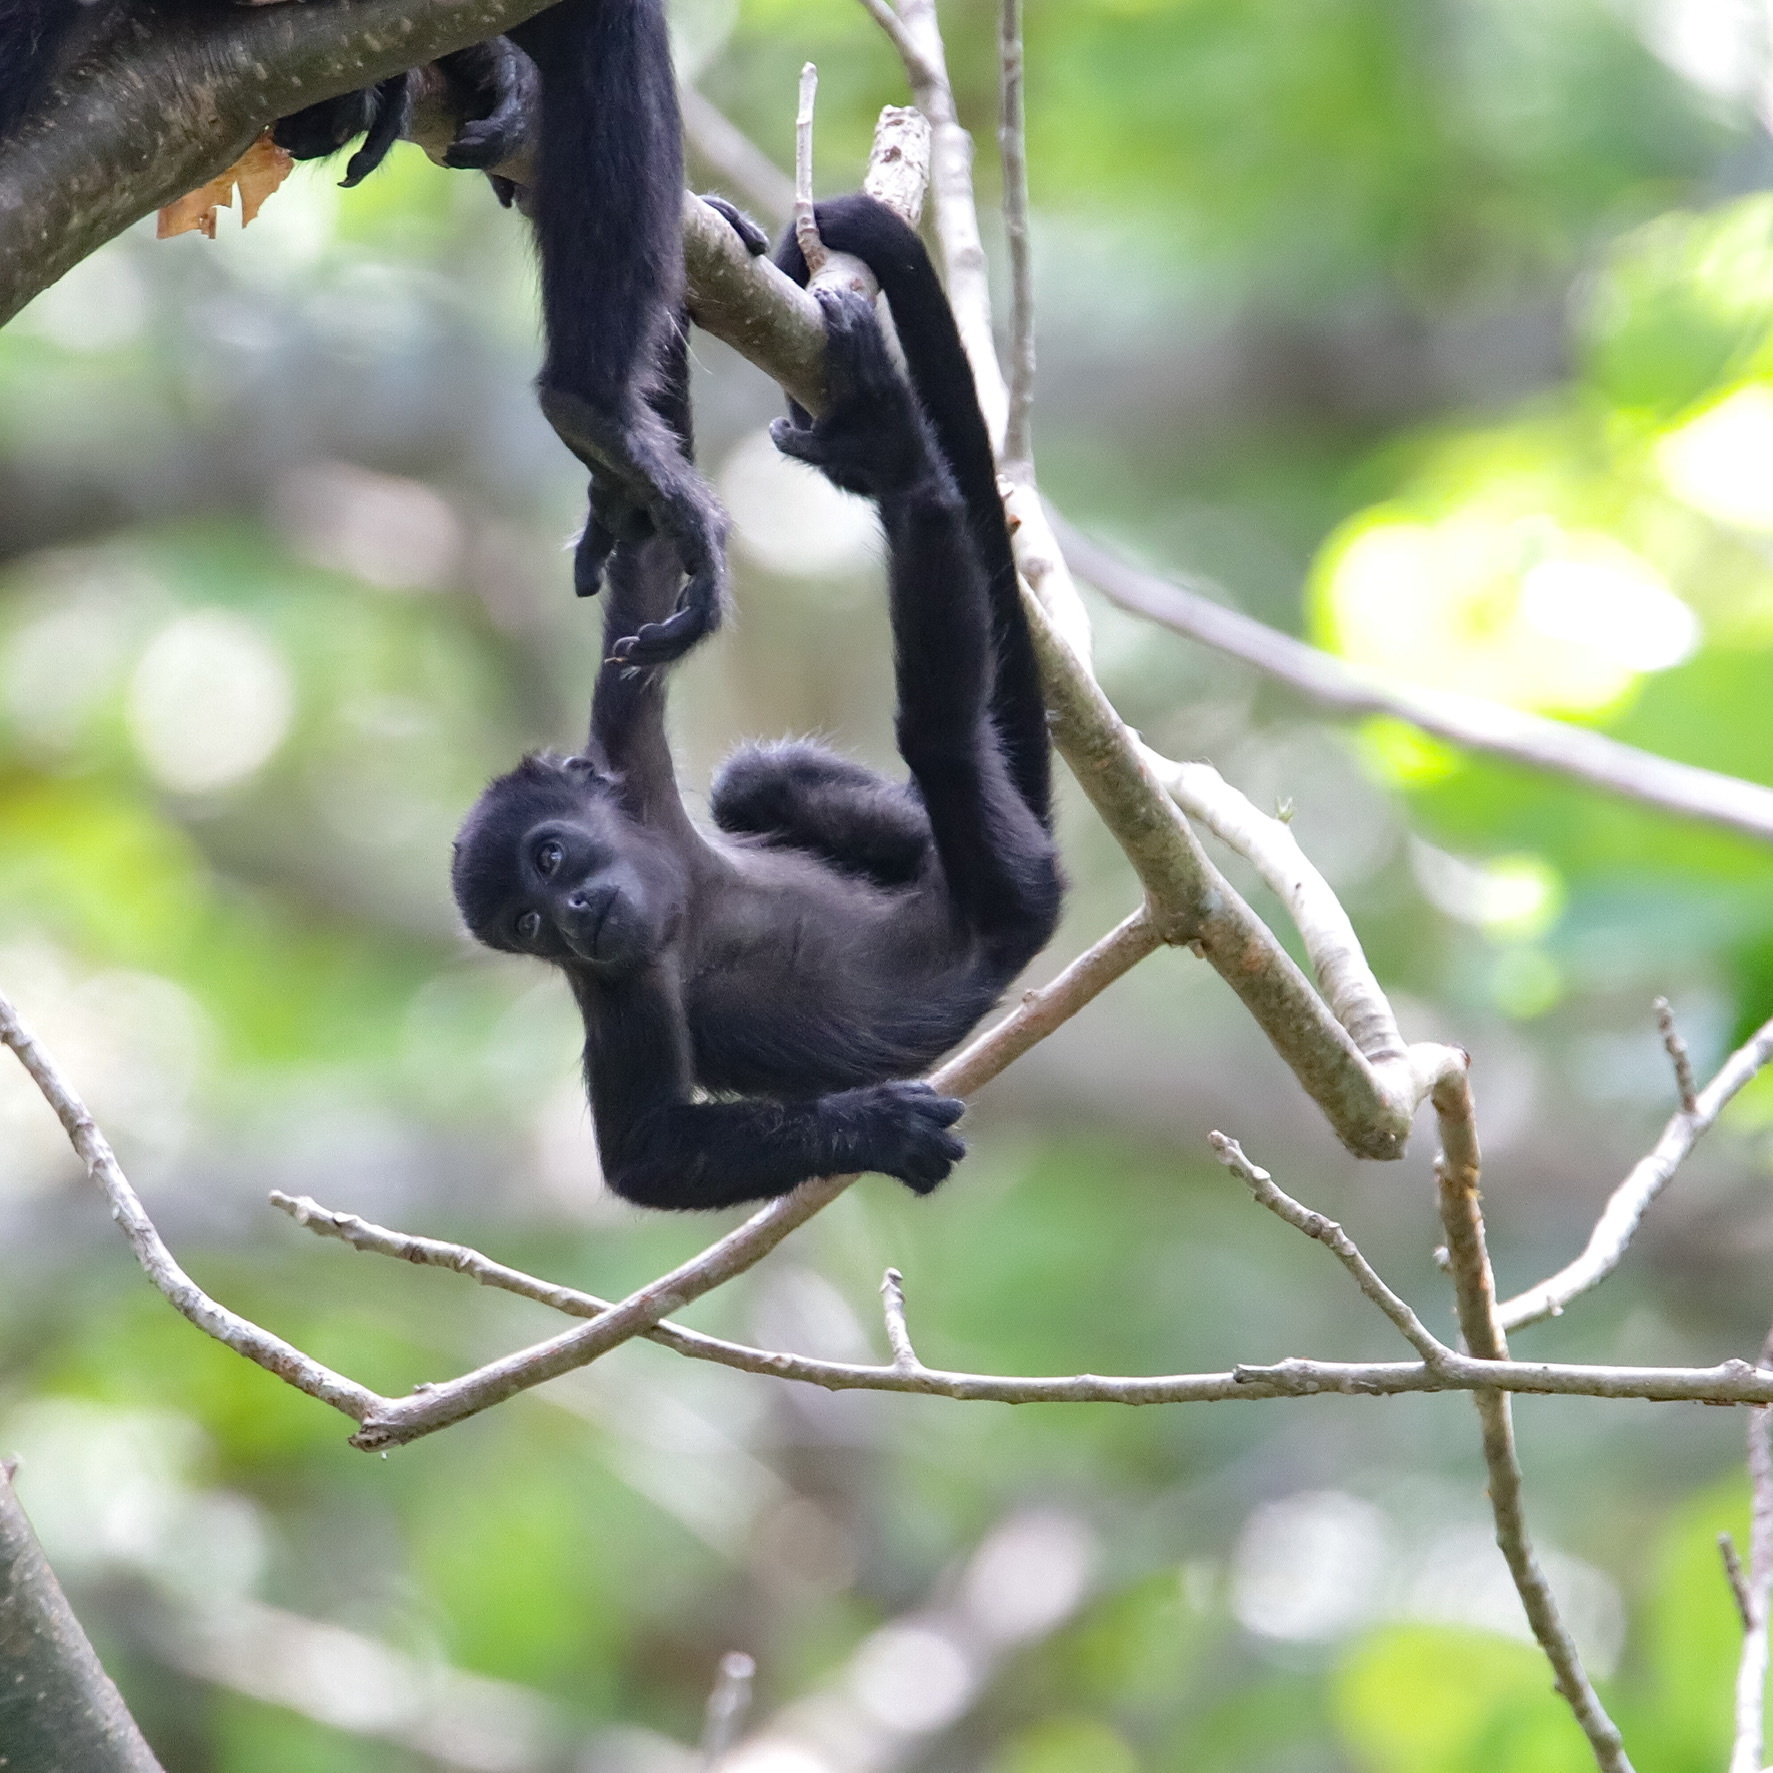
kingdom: Animalia
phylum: Chordata
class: Mammalia
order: Primates
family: Atelidae
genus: Alouatta
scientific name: Alouatta palliata
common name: Mantled howler
